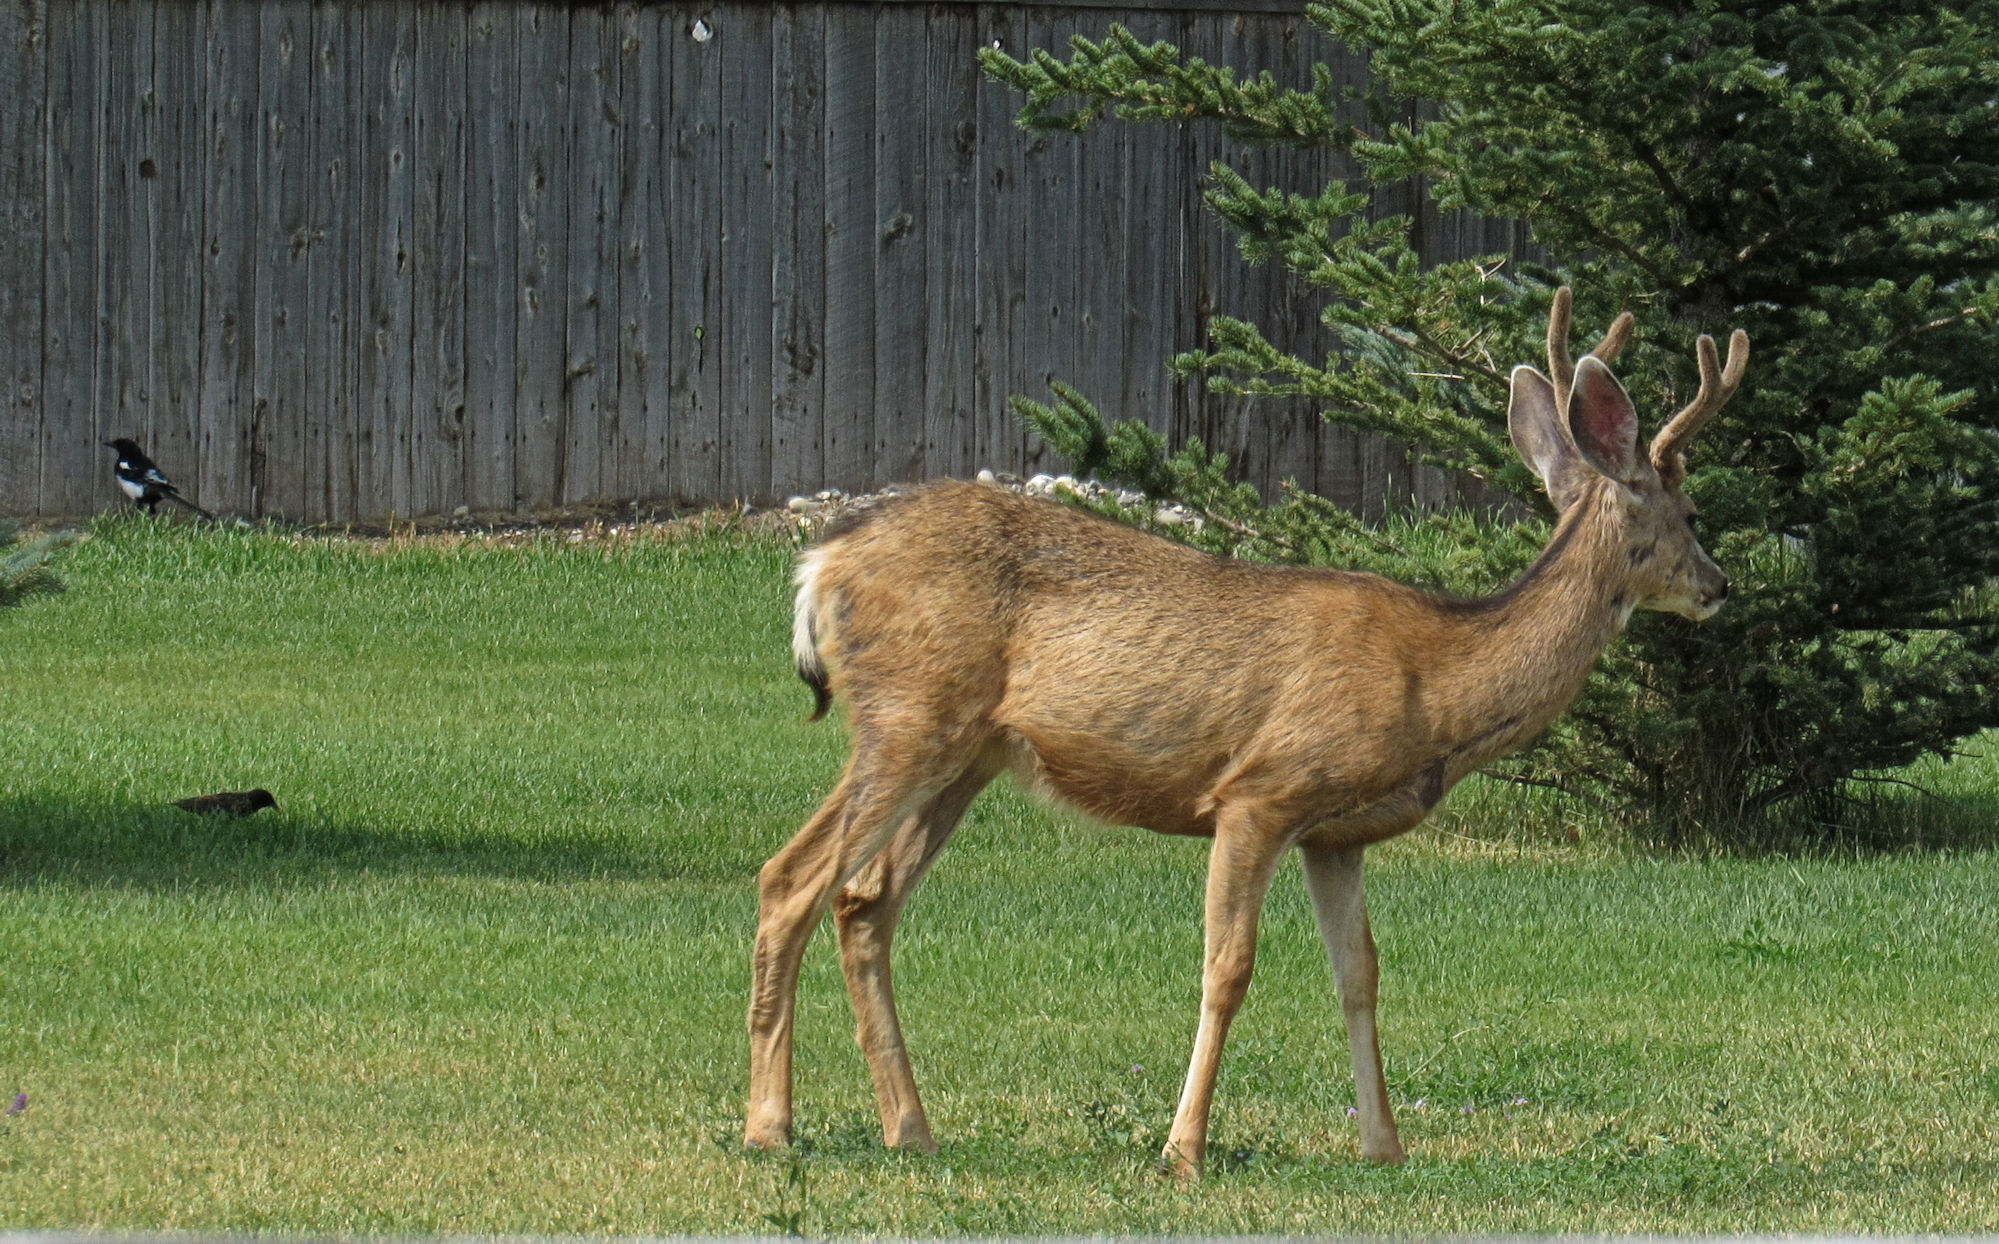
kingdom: Animalia
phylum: Chordata
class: Mammalia
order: Artiodactyla
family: Cervidae
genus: Odocoileus
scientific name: Odocoileus hemionus
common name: Mule deer
